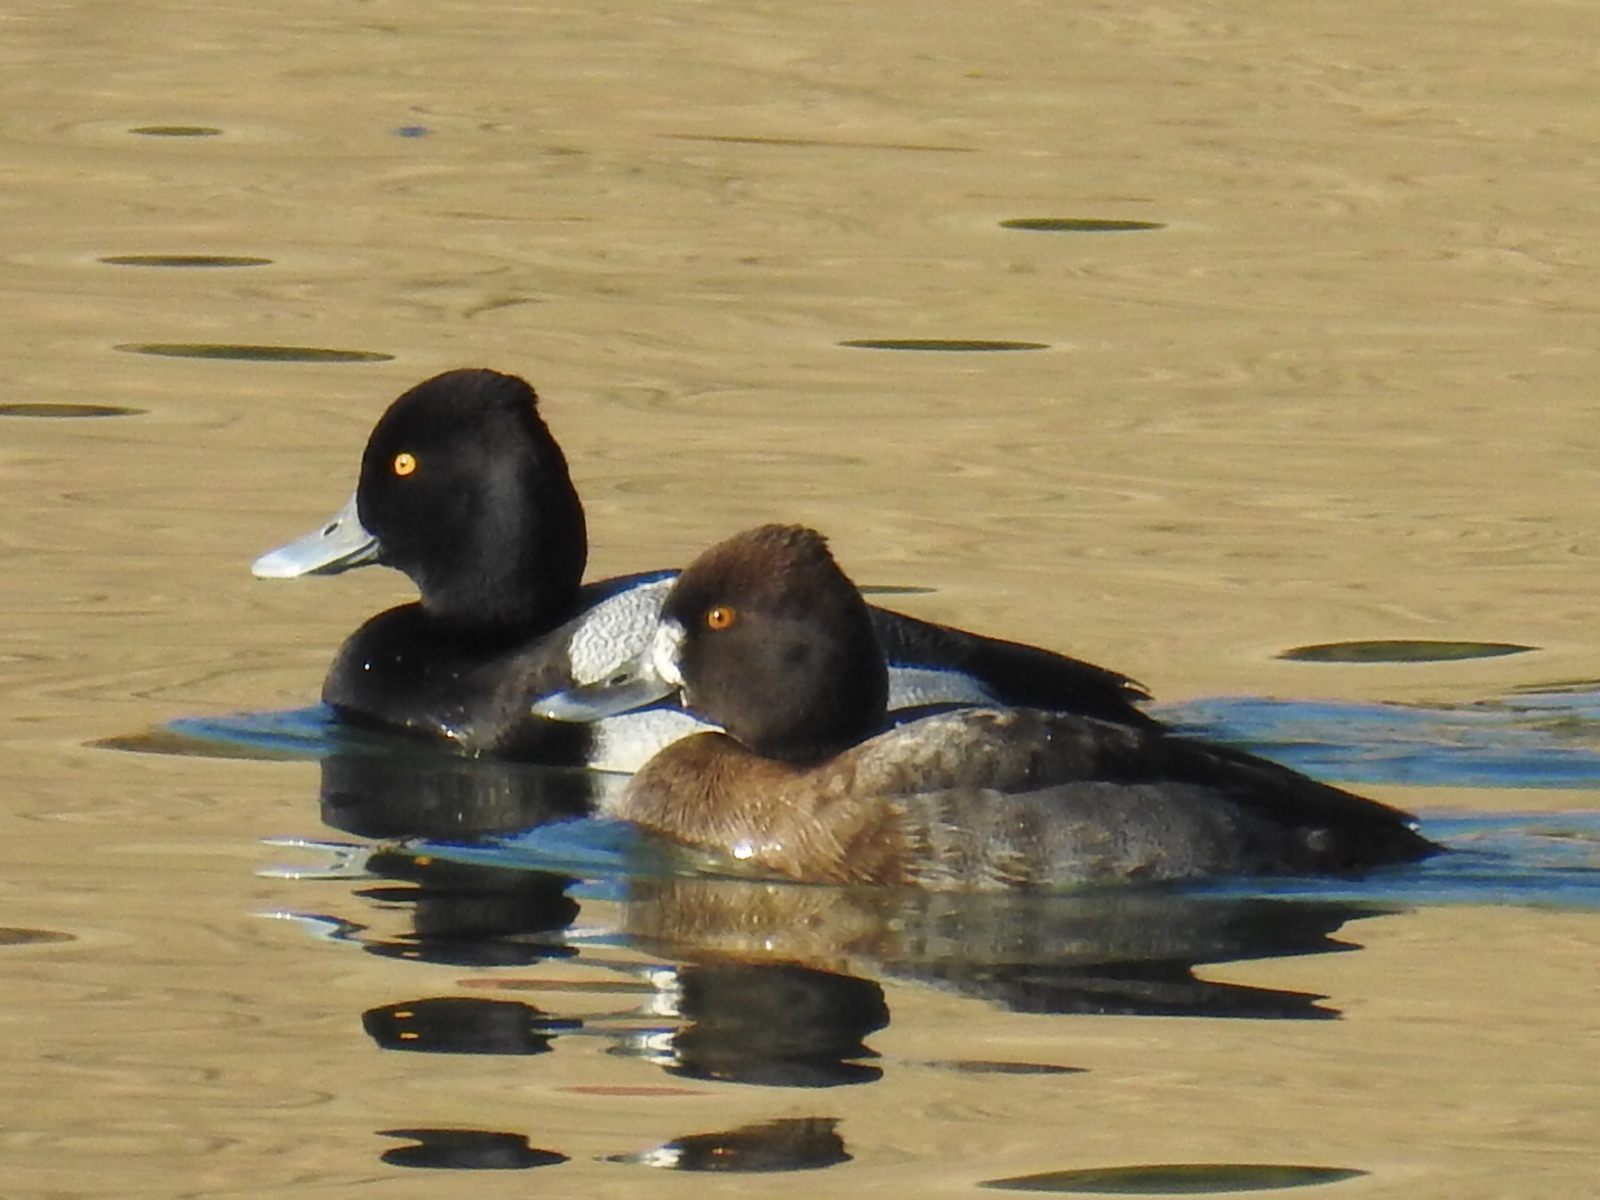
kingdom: Animalia
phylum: Chordata
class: Aves
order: Anseriformes
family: Anatidae
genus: Aythya
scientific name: Aythya affinis
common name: Lesser scaup
